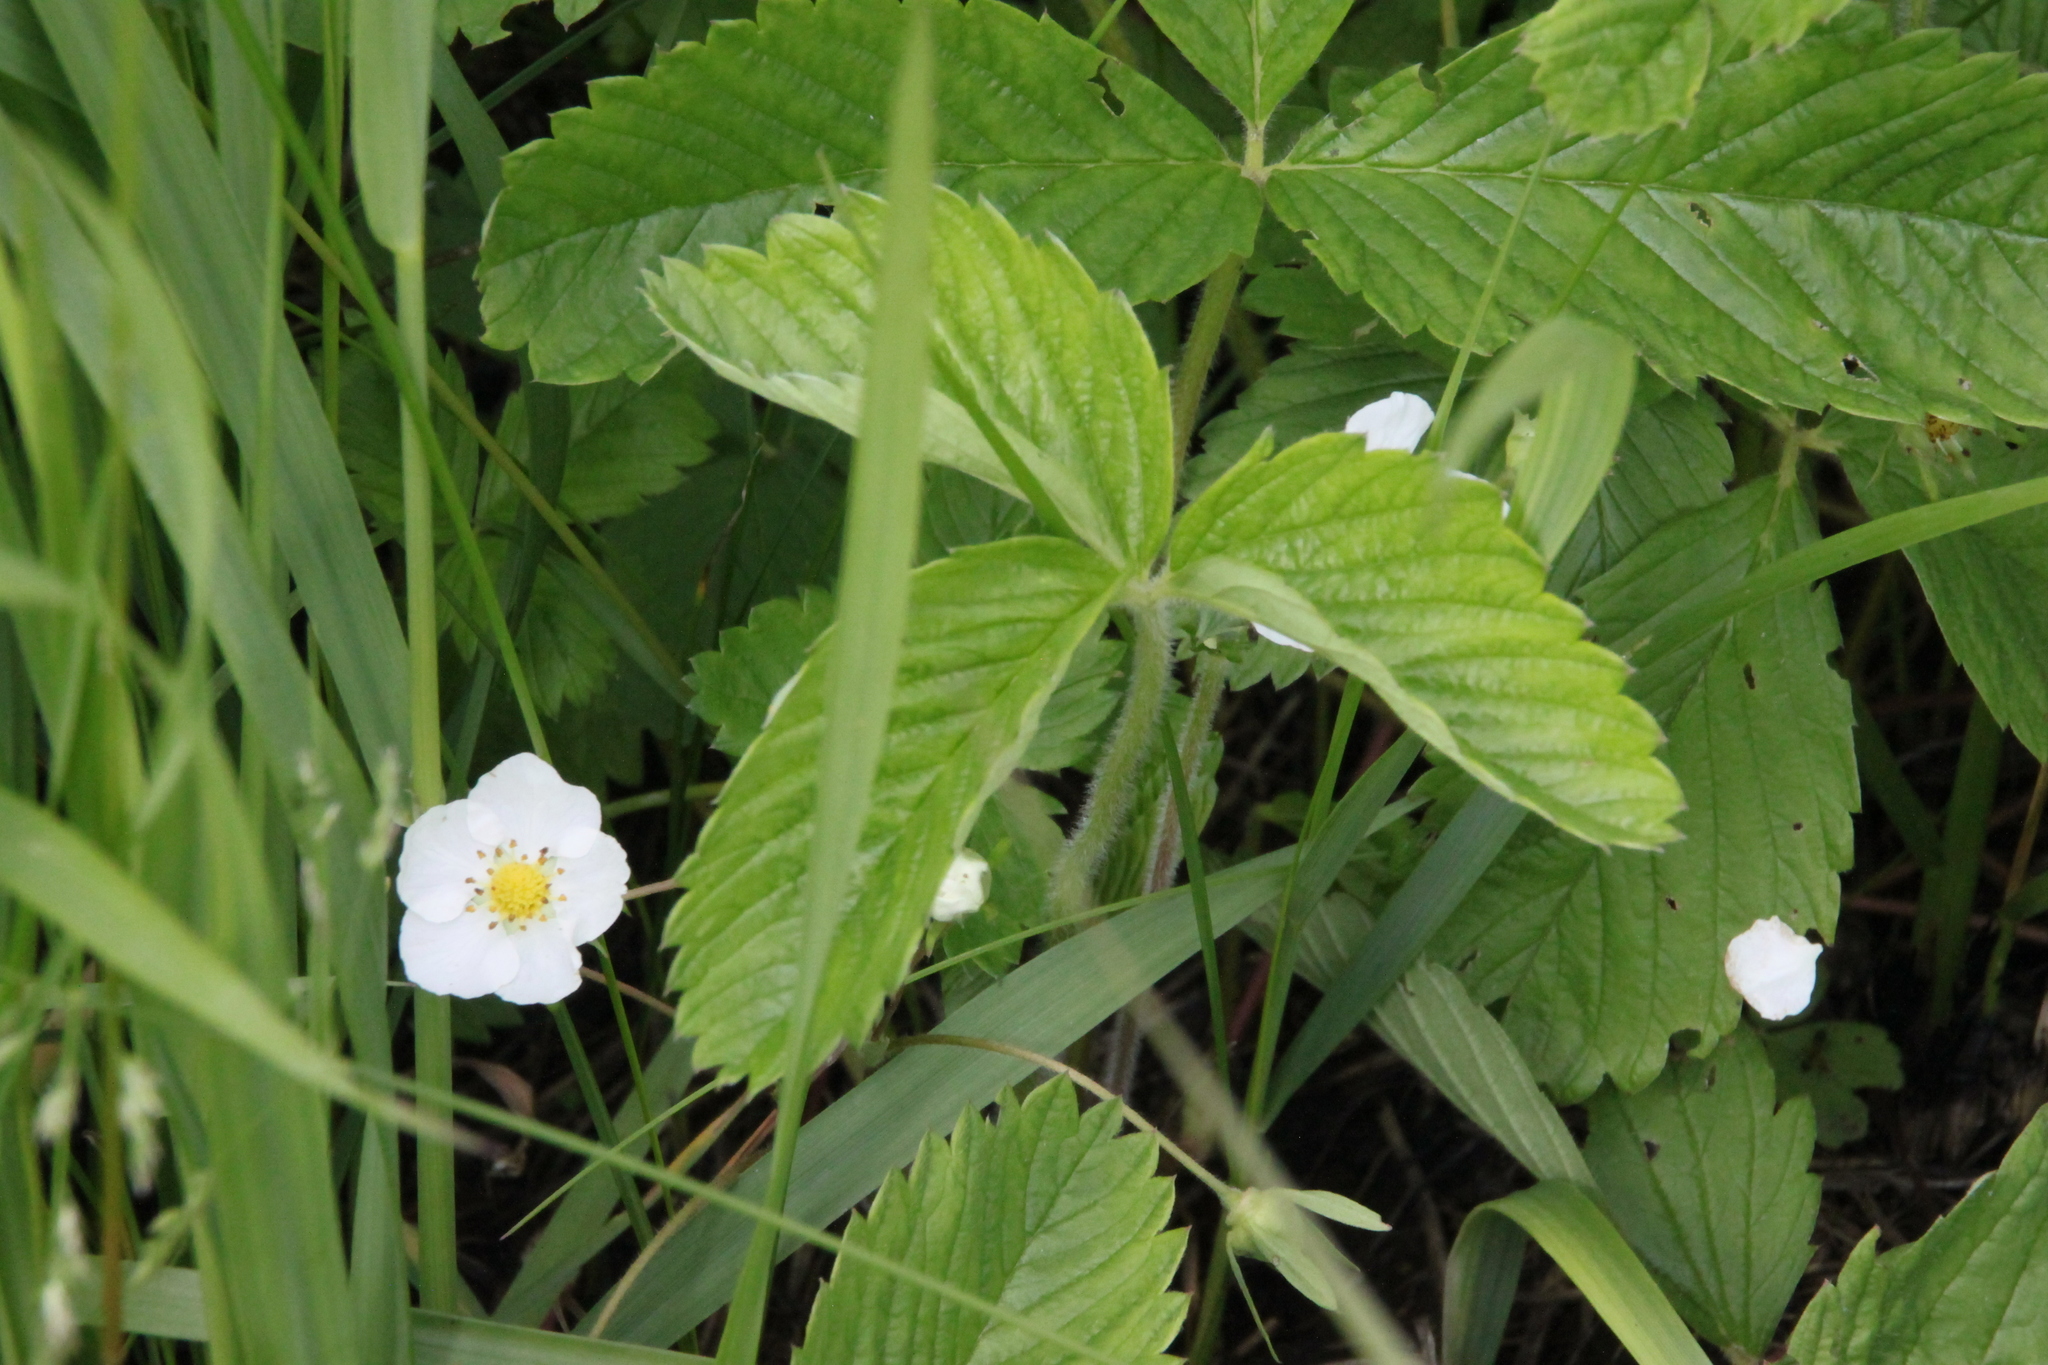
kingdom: Plantae
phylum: Tracheophyta
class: Magnoliopsida
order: Rosales
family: Rosaceae
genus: Fragaria
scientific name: Fragaria viridis
